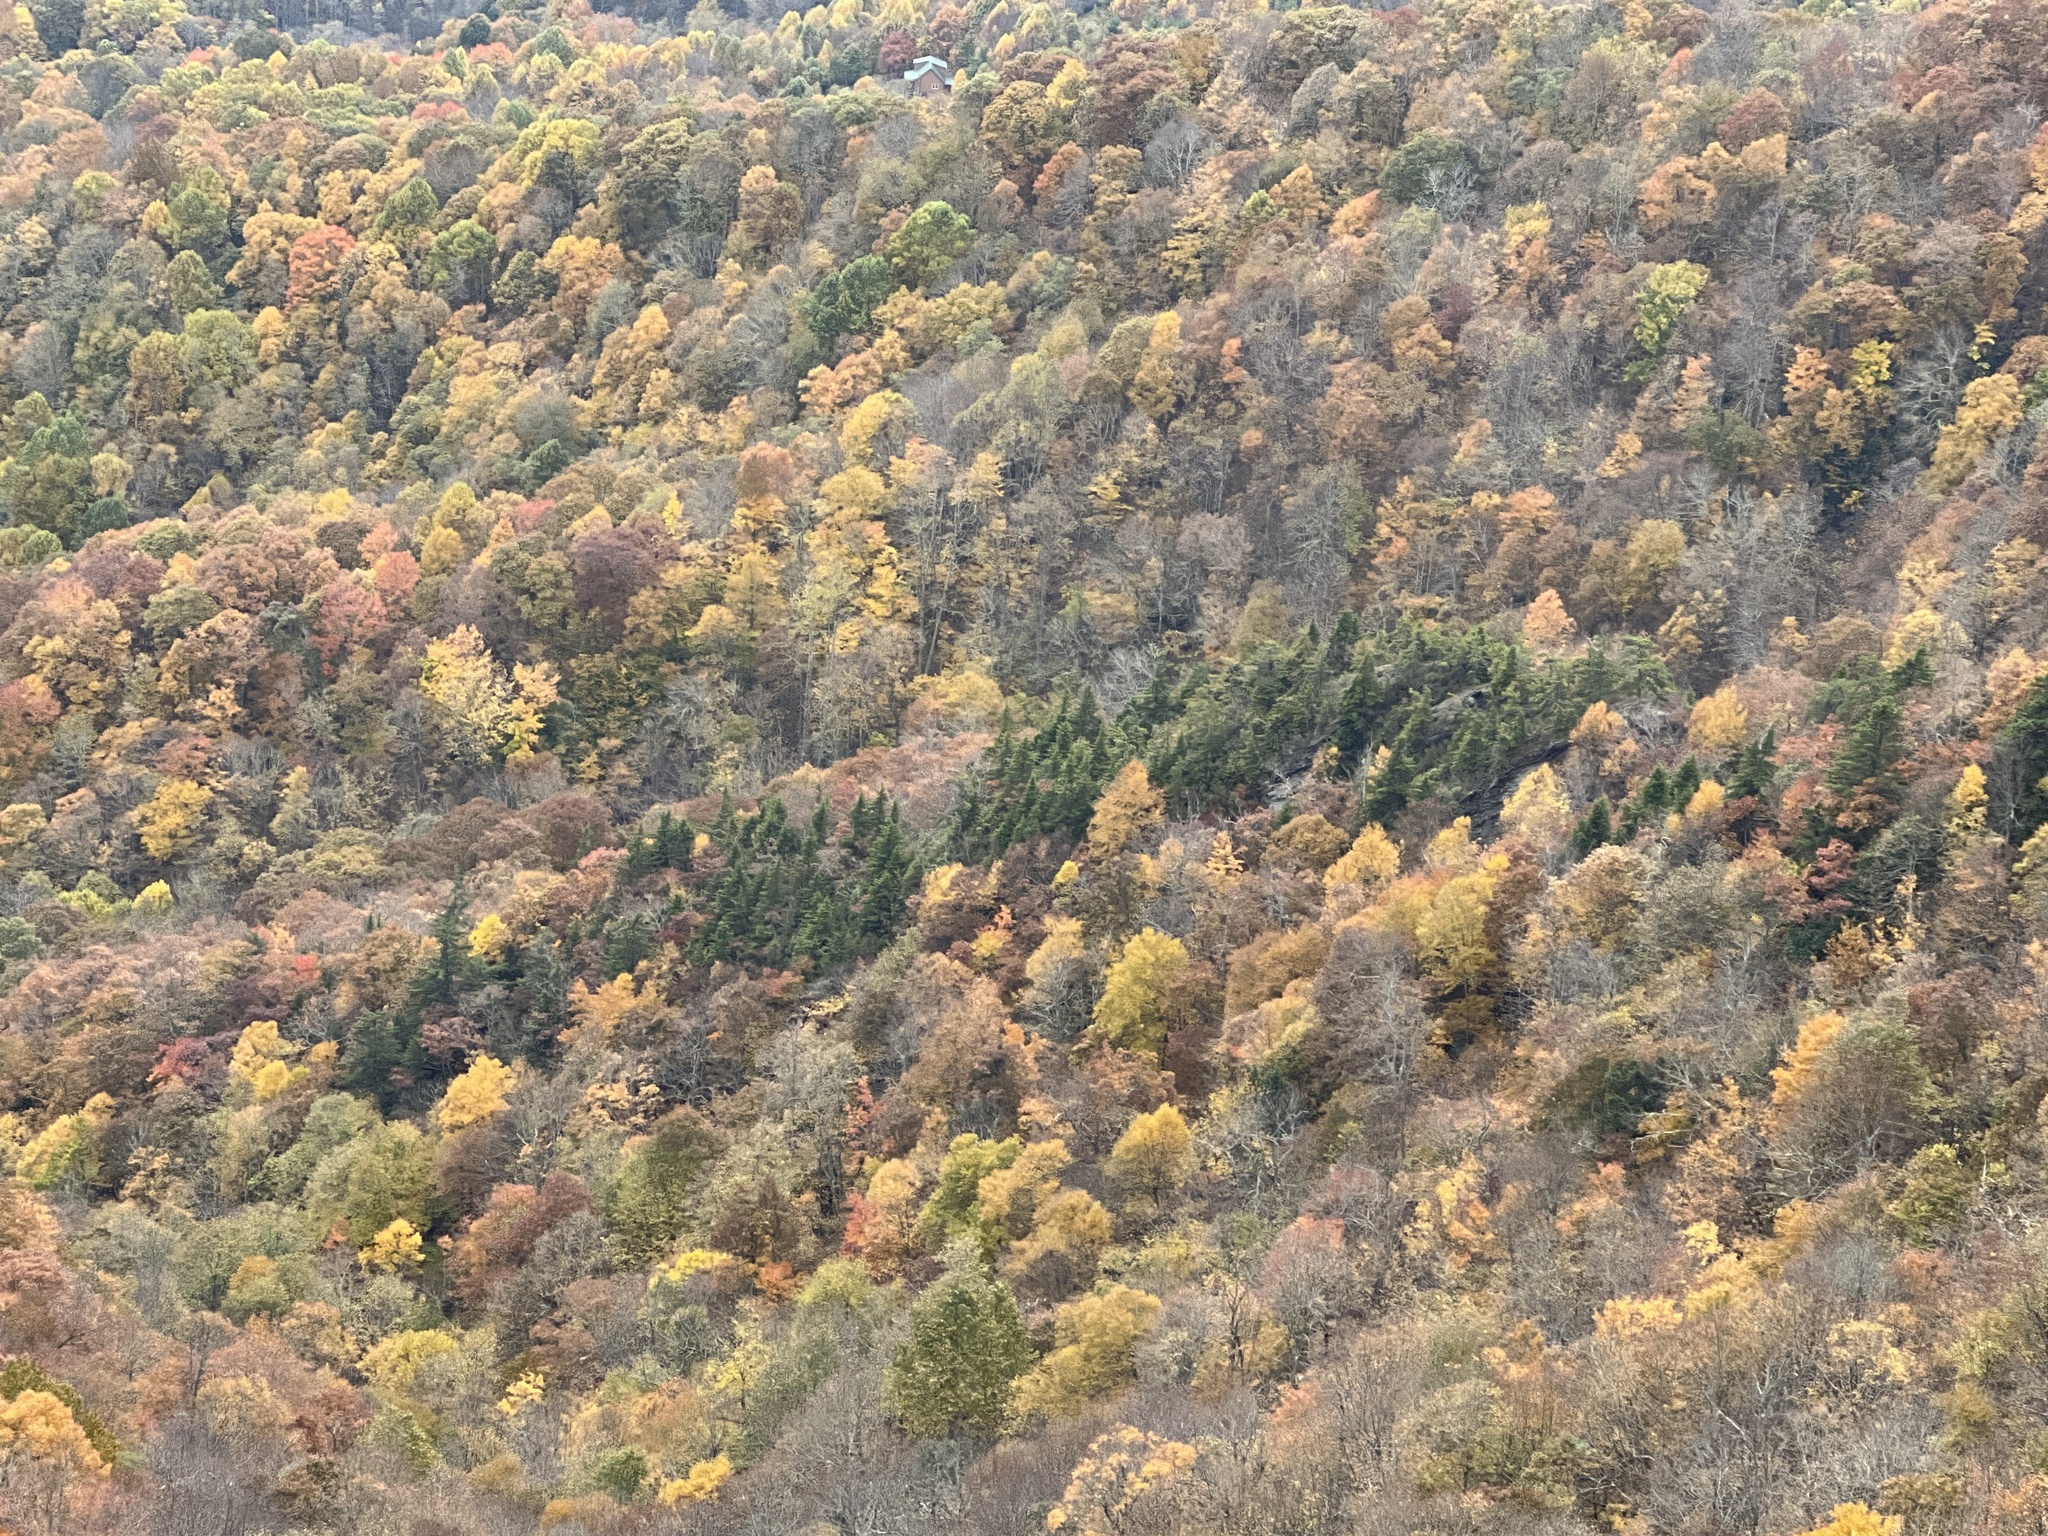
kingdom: Plantae
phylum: Tracheophyta
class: Pinopsida
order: Pinales
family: Pinaceae
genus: Tsuga
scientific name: Tsuga caroliniana
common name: Carolina hemlock
